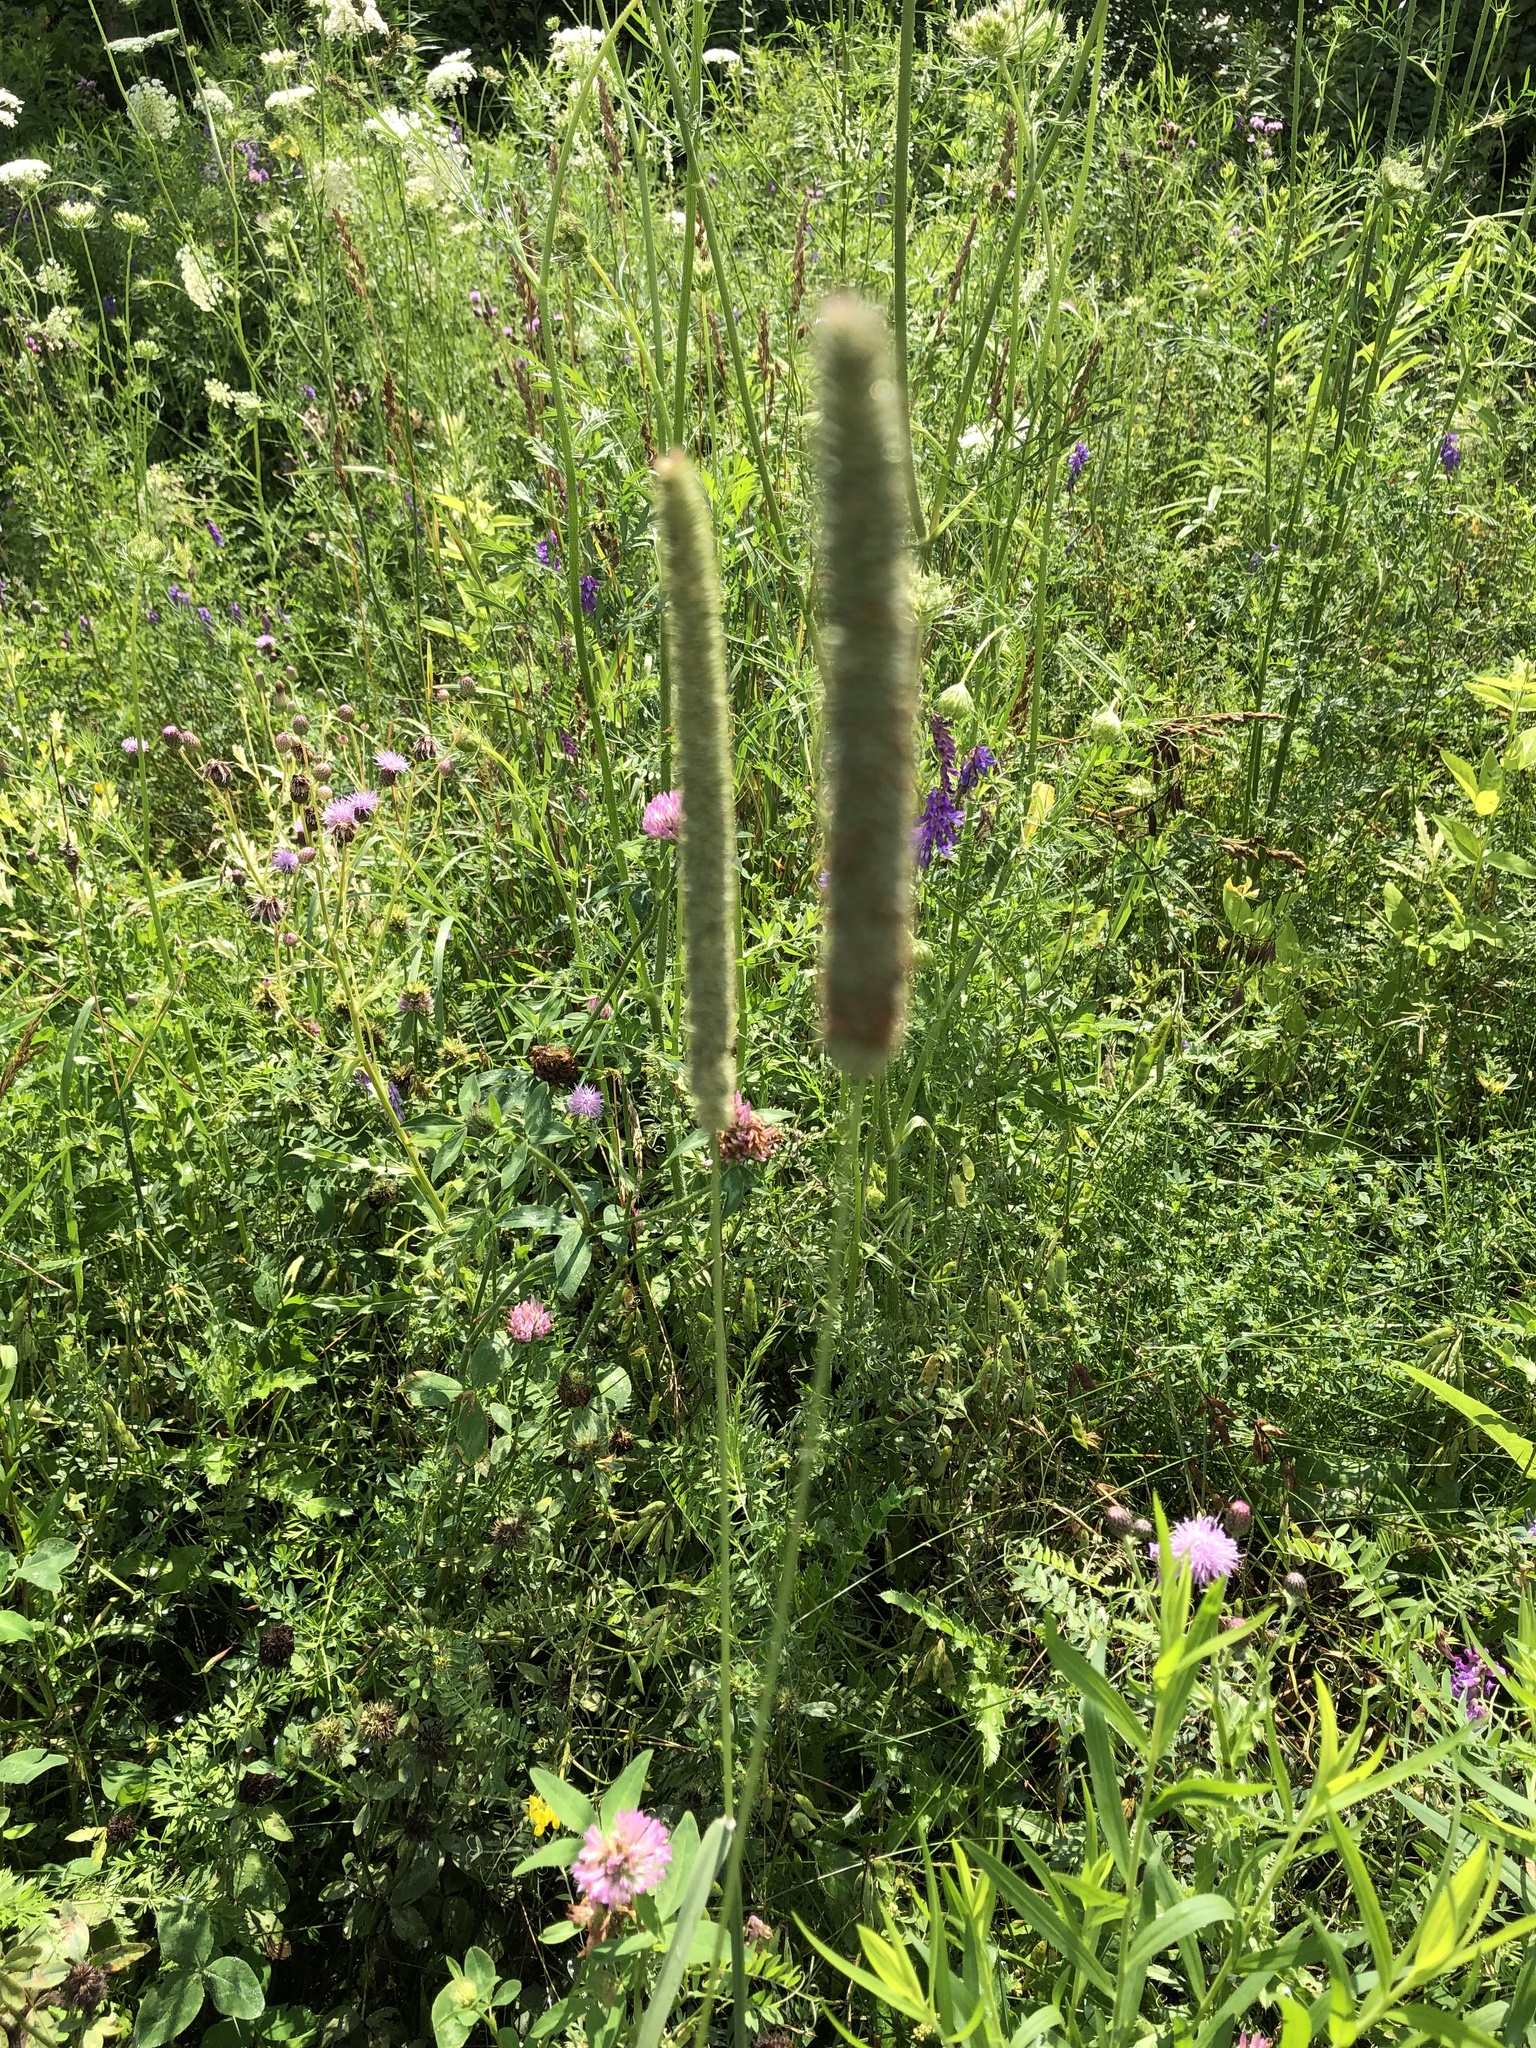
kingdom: Plantae
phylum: Tracheophyta
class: Liliopsida
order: Poales
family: Poaceae
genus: Phleum
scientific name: Phleum pratense
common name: Timothy grass
